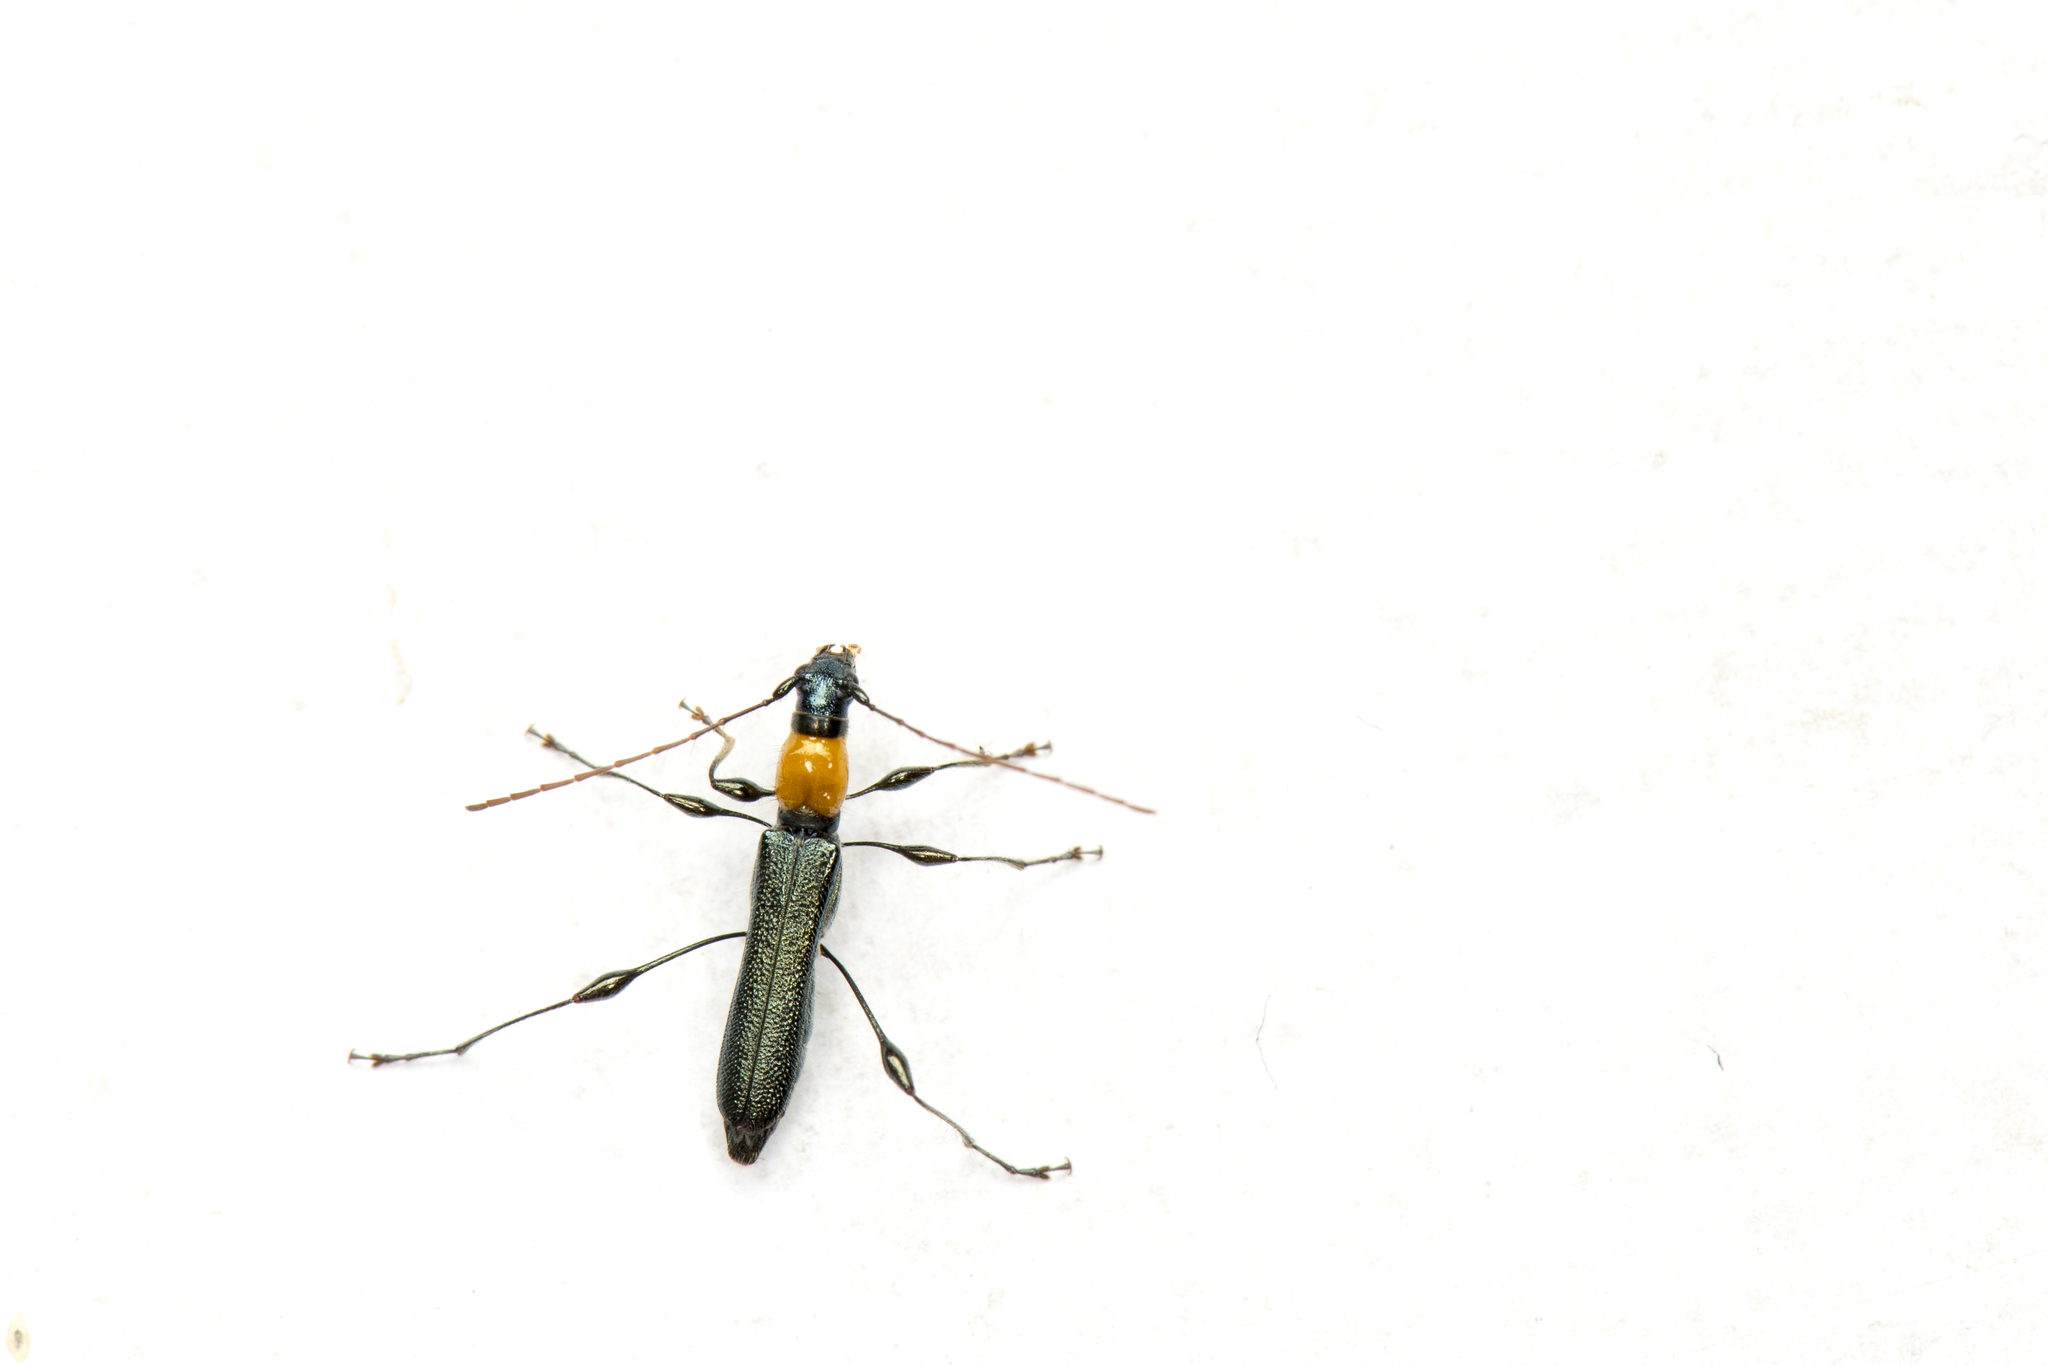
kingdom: Animalia
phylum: Arthropoda
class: Insecta
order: Coleoptera
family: Cerambycidae
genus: Artimpaza
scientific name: Artimpaza pulchella
